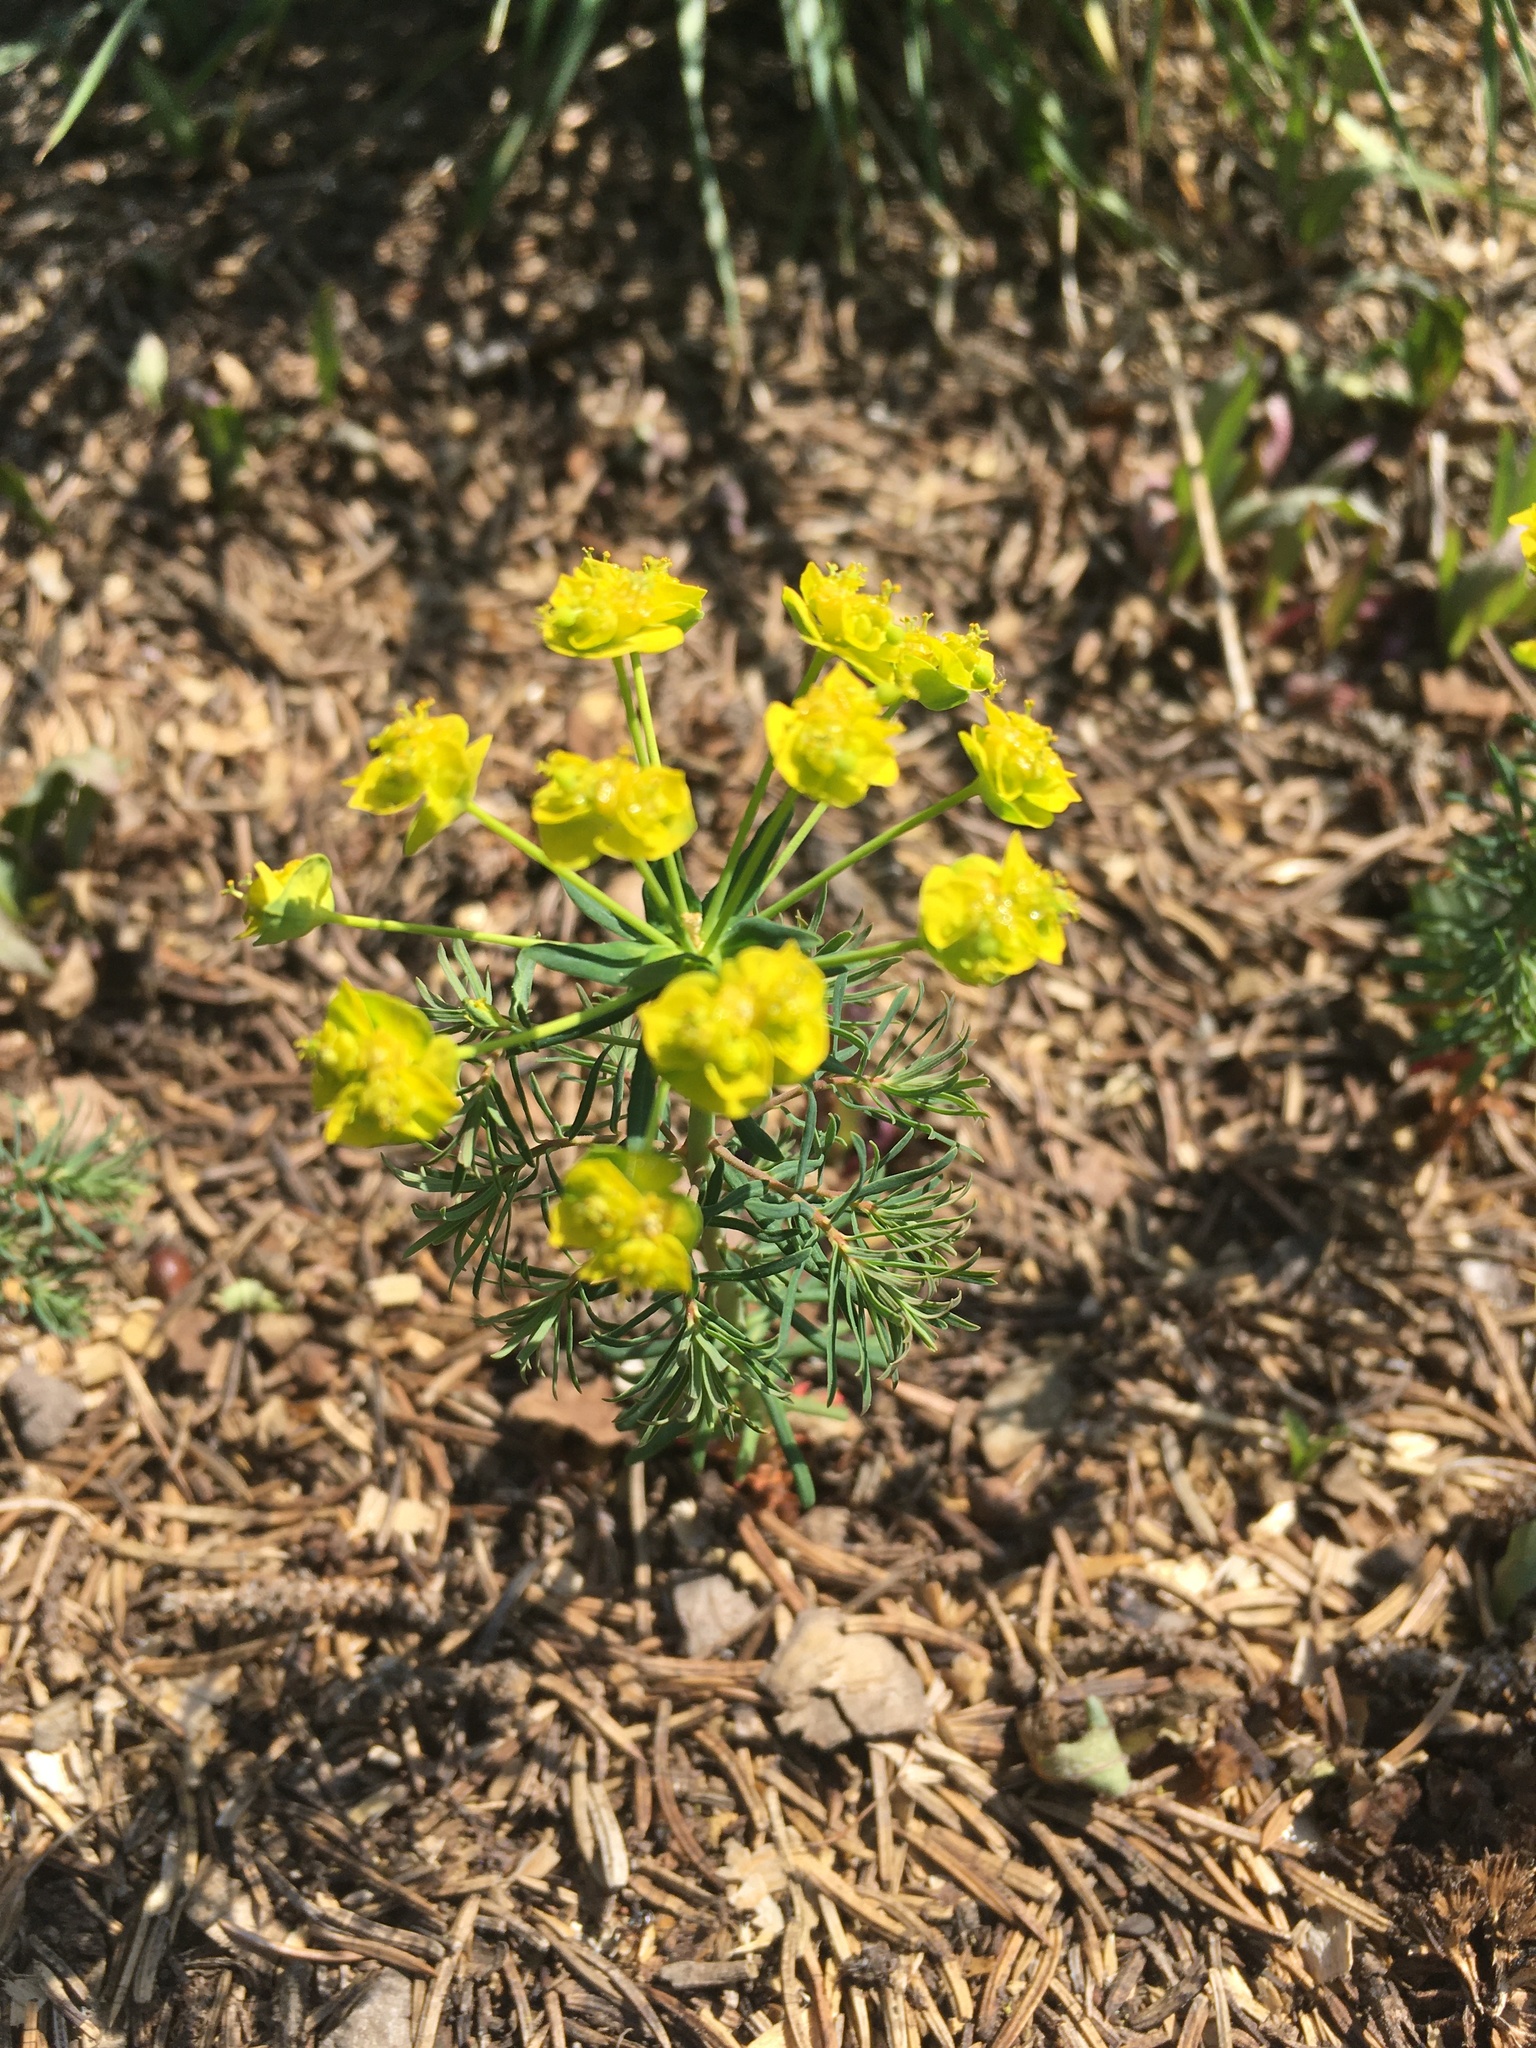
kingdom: Plantae
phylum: Tracheophyta
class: Magnoliopsida
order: Malpighiales
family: Euphorbiaceae
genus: Euphorbia
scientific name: Euphorbia cyparissias
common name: Cypress spurge
